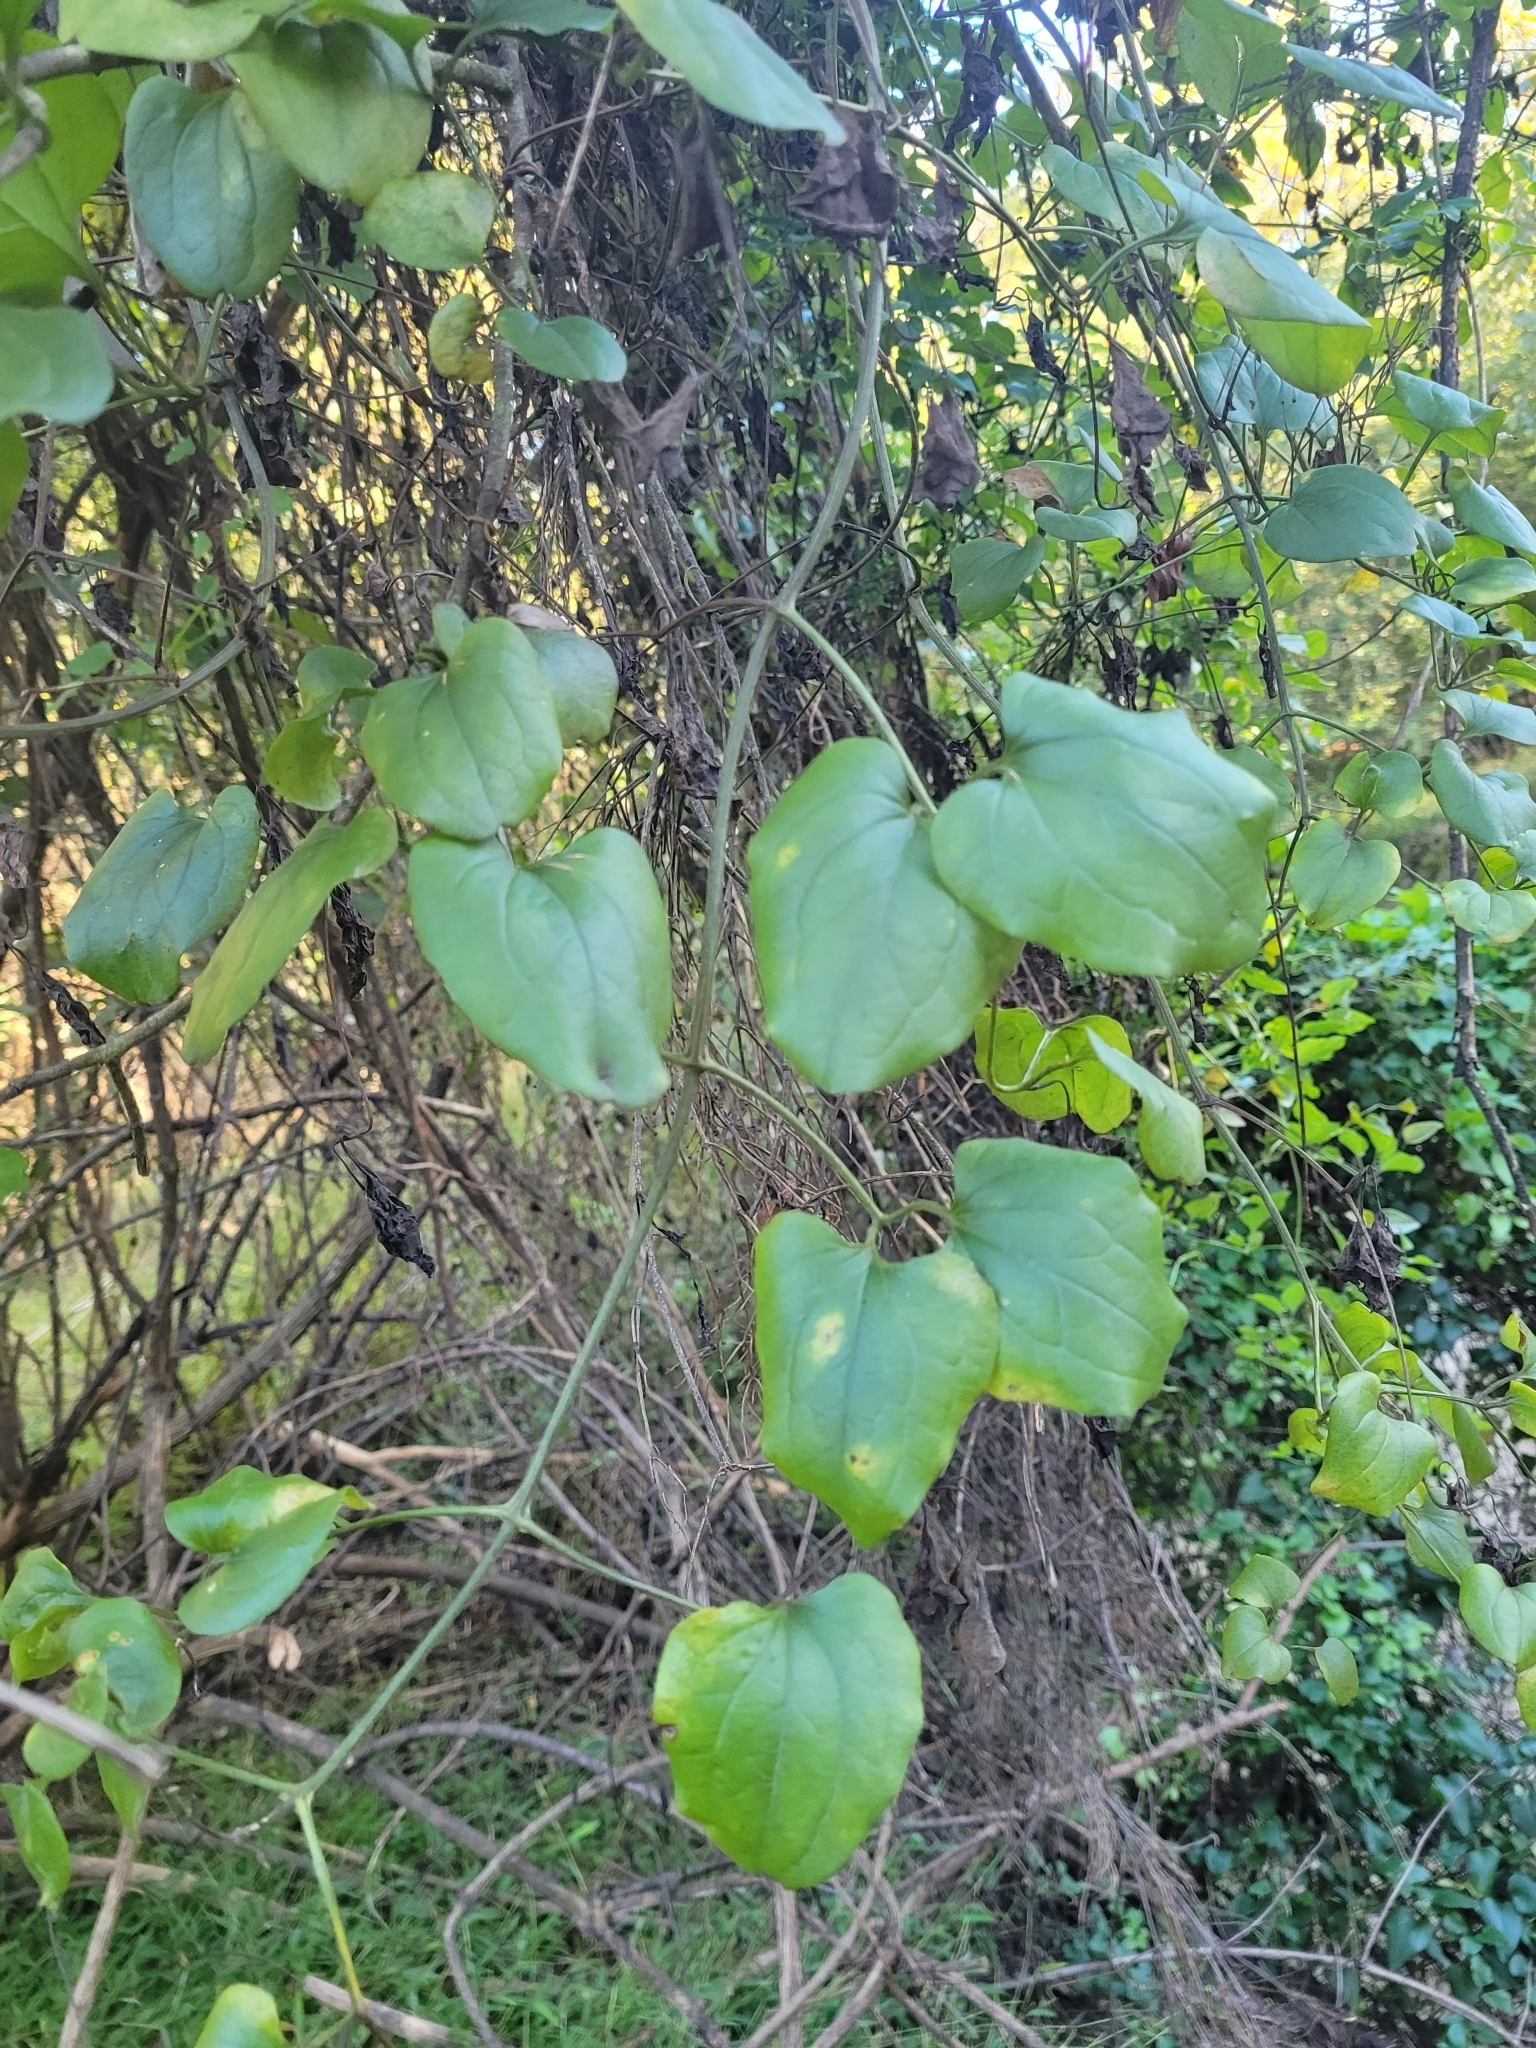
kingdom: Plantae
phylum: Tracheophyta
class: Liliopsida
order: Liliales
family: Smilacaceae
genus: Smilax
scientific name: Smilax rotundifolia
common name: Bullbriar
